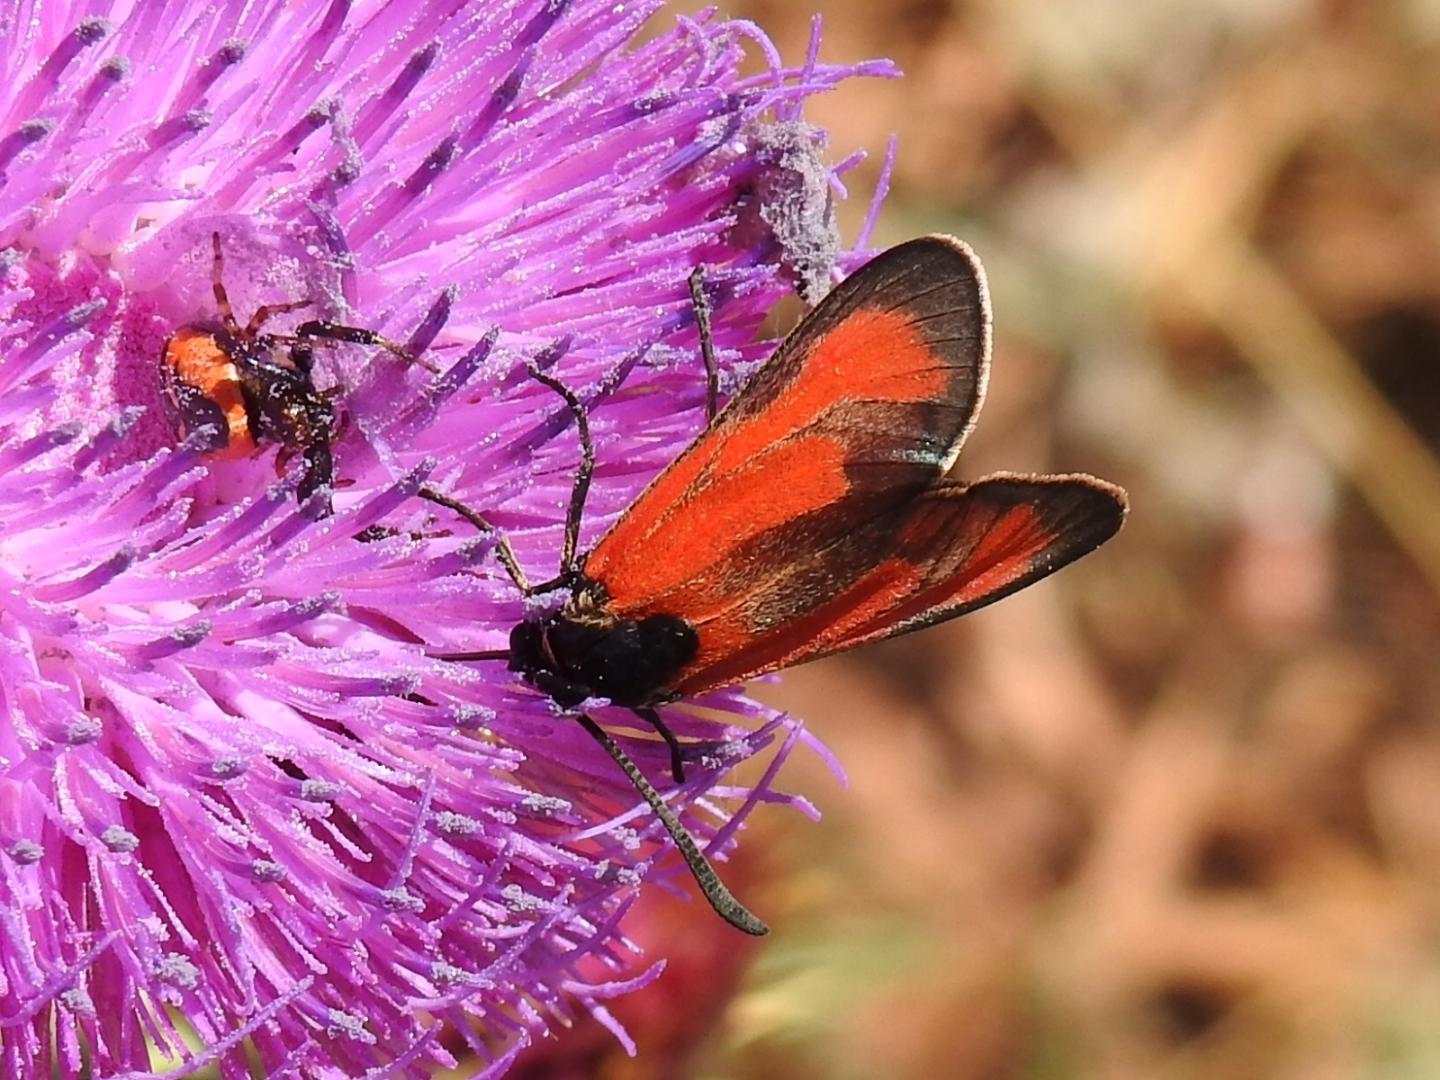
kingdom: Animalia
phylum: Arthropoda
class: Insecta
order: Lepidoptera
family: Zygaenidae
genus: Zygaena
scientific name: Zygaena erythrus
